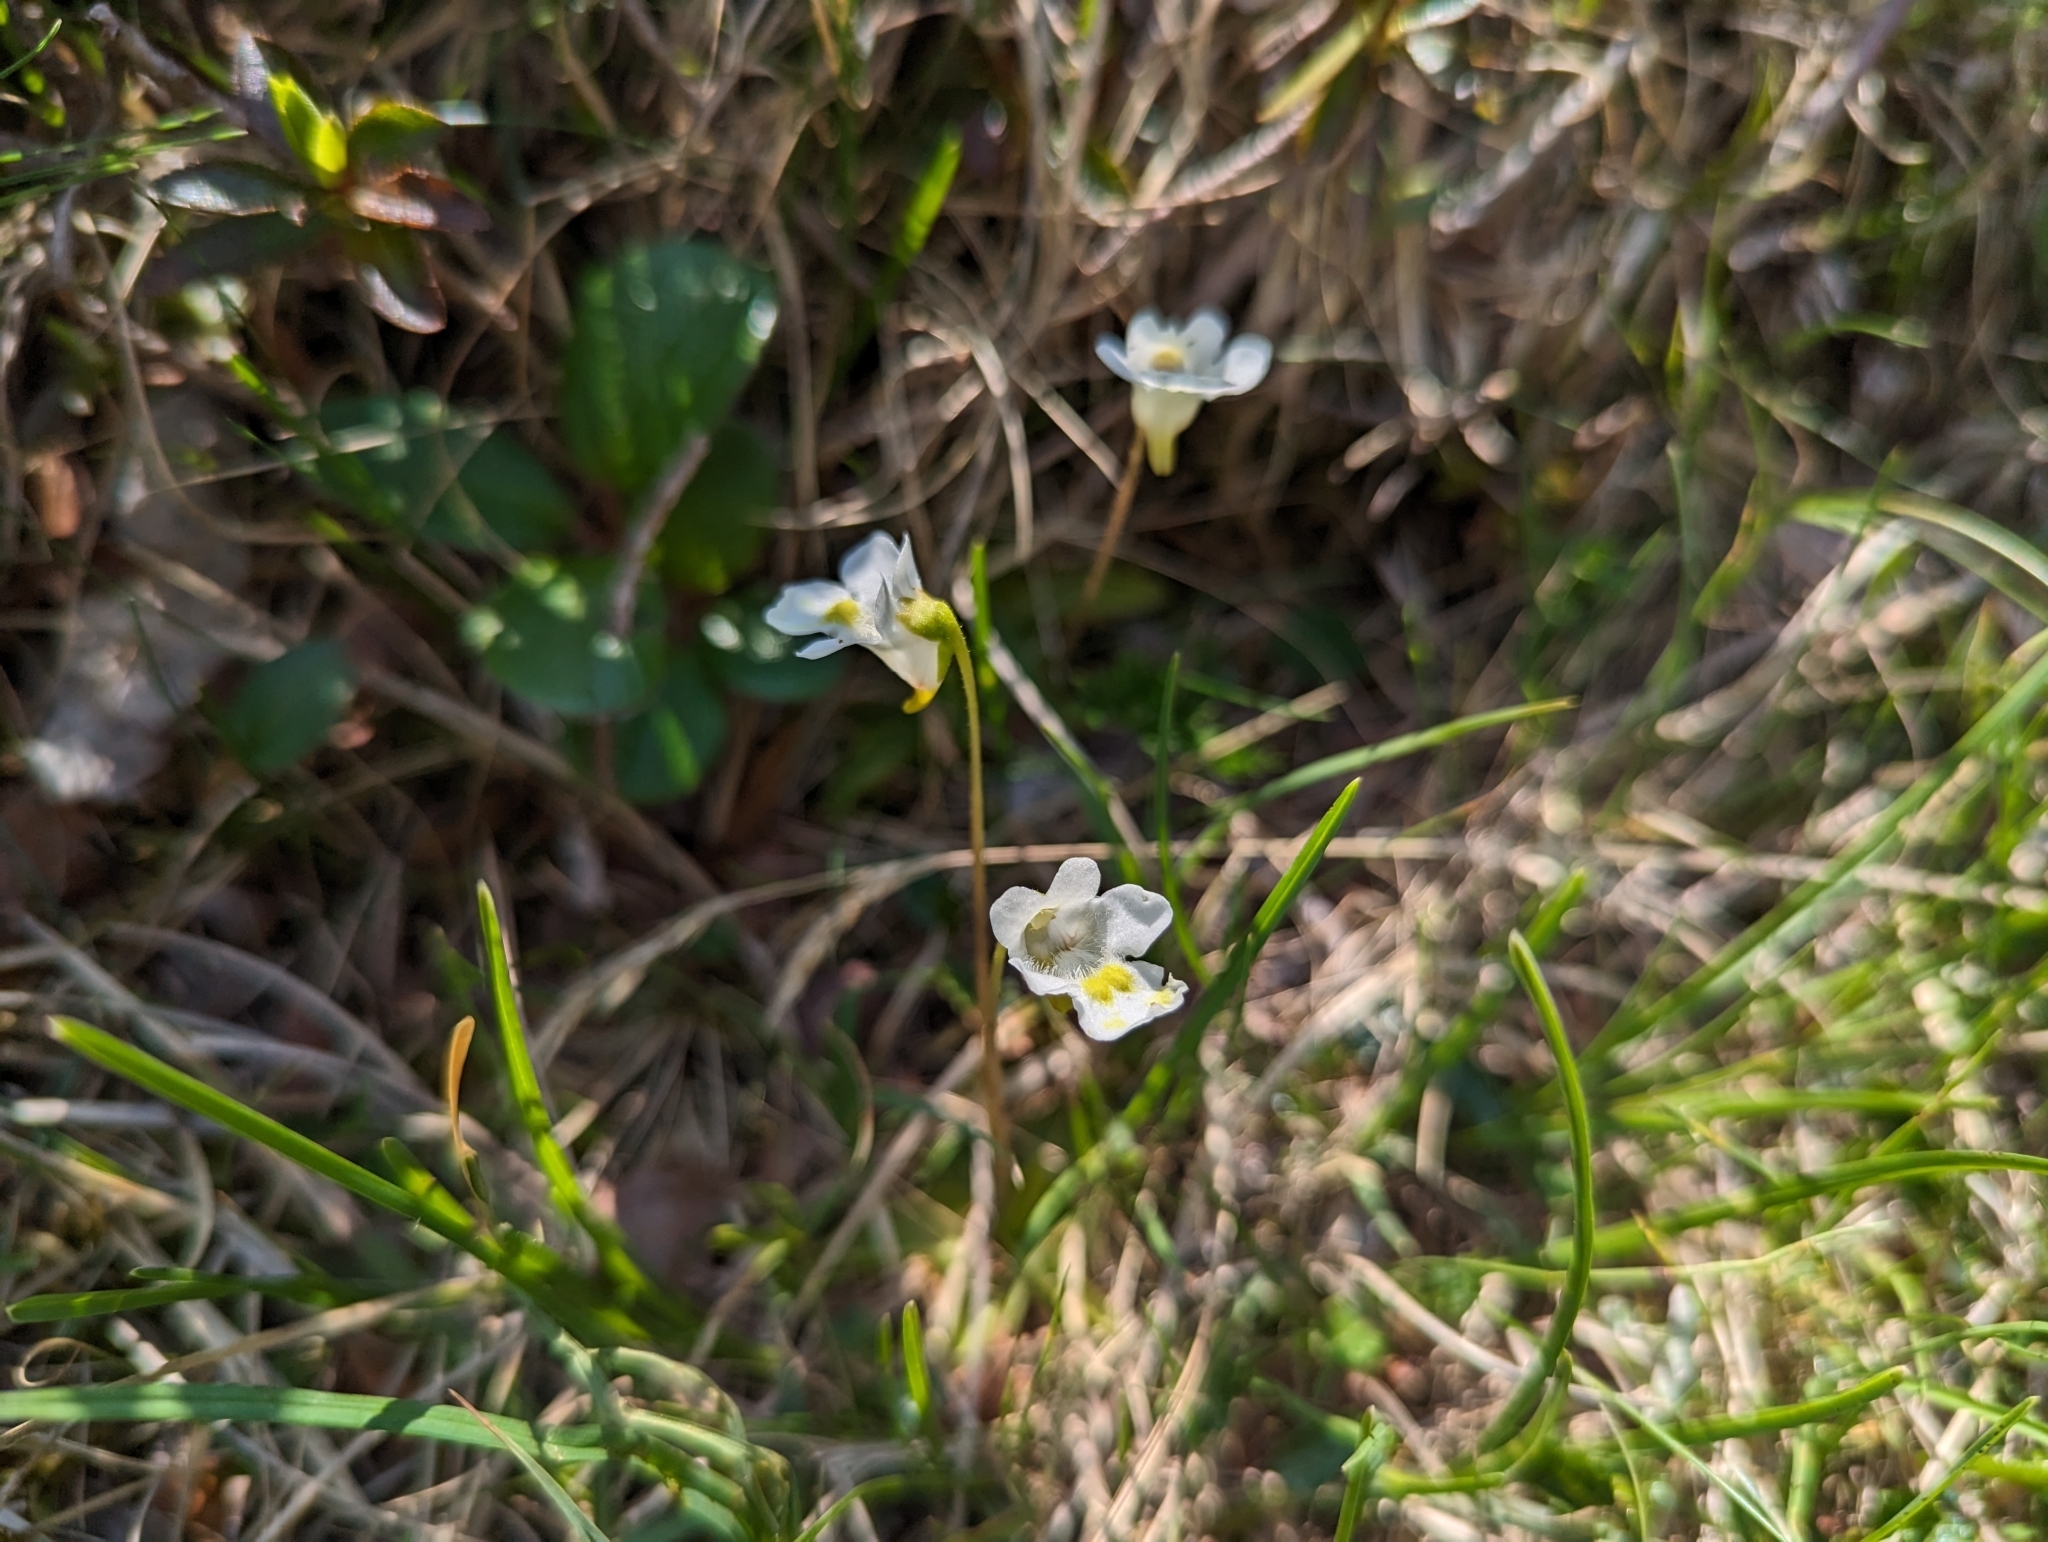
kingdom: Plantae
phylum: Tracheophyta
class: Magnoliopsida
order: Lamiales
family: Lentibulariaceae
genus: Pinguicula
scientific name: Pinguicula alpina
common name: Alpine butterwort
